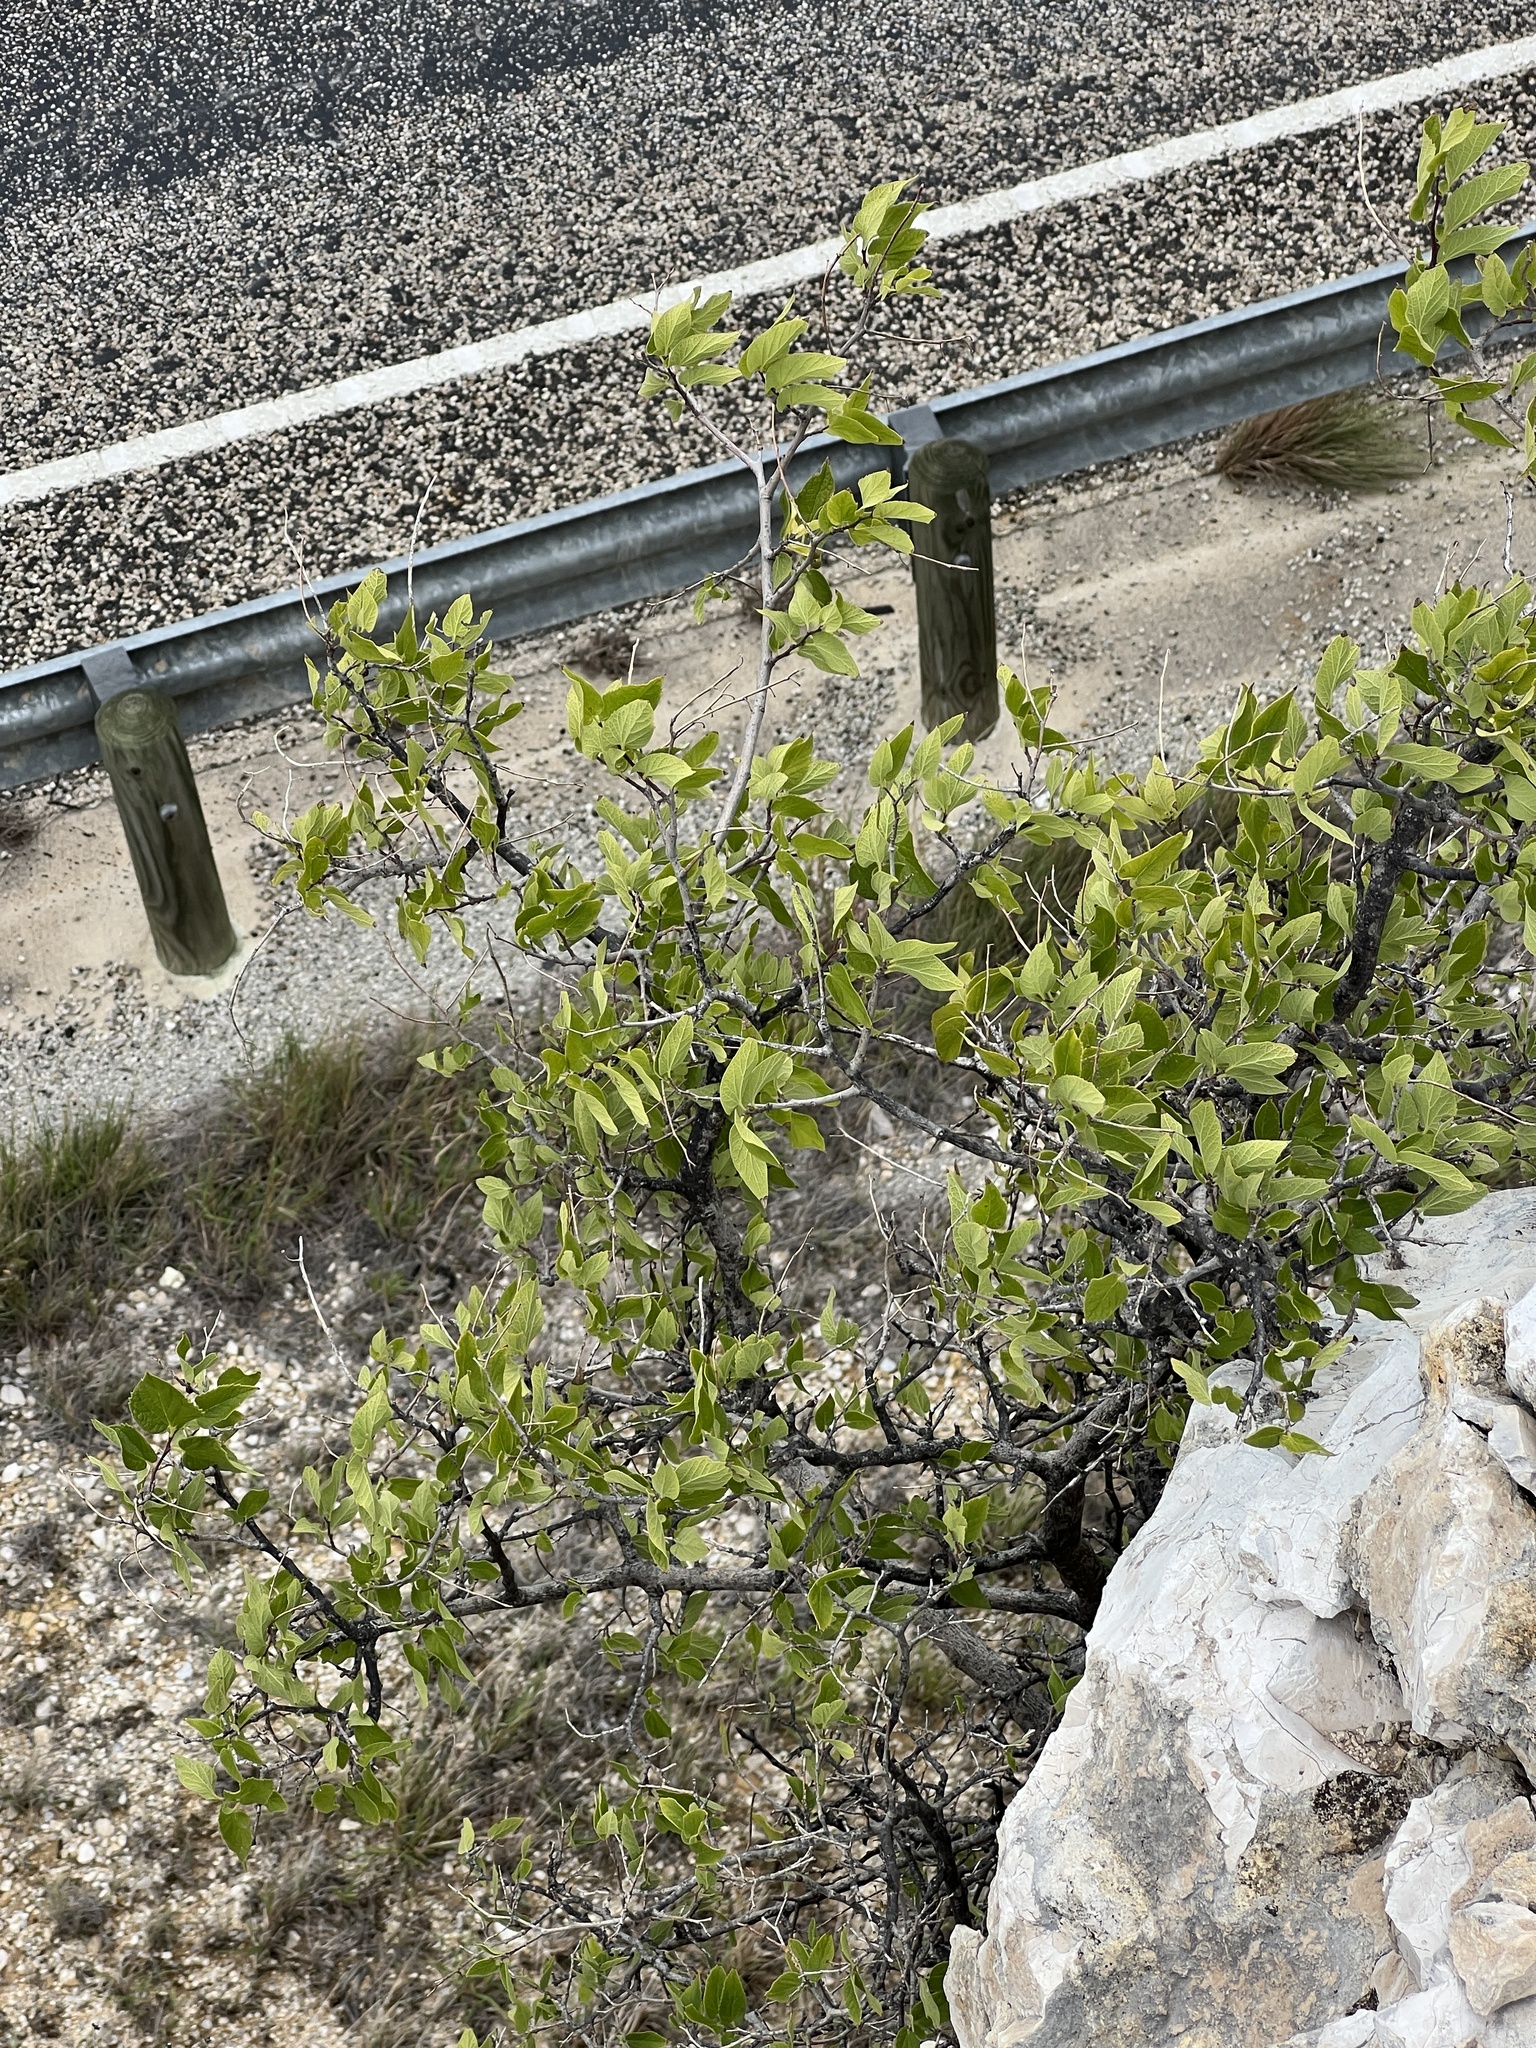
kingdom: Plantae
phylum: Tracheophyta
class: Magnoliopsida
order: Rosales
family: Cannabaceae
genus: Celtis
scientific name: Celtis reticulata
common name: Netleaf hackberry
